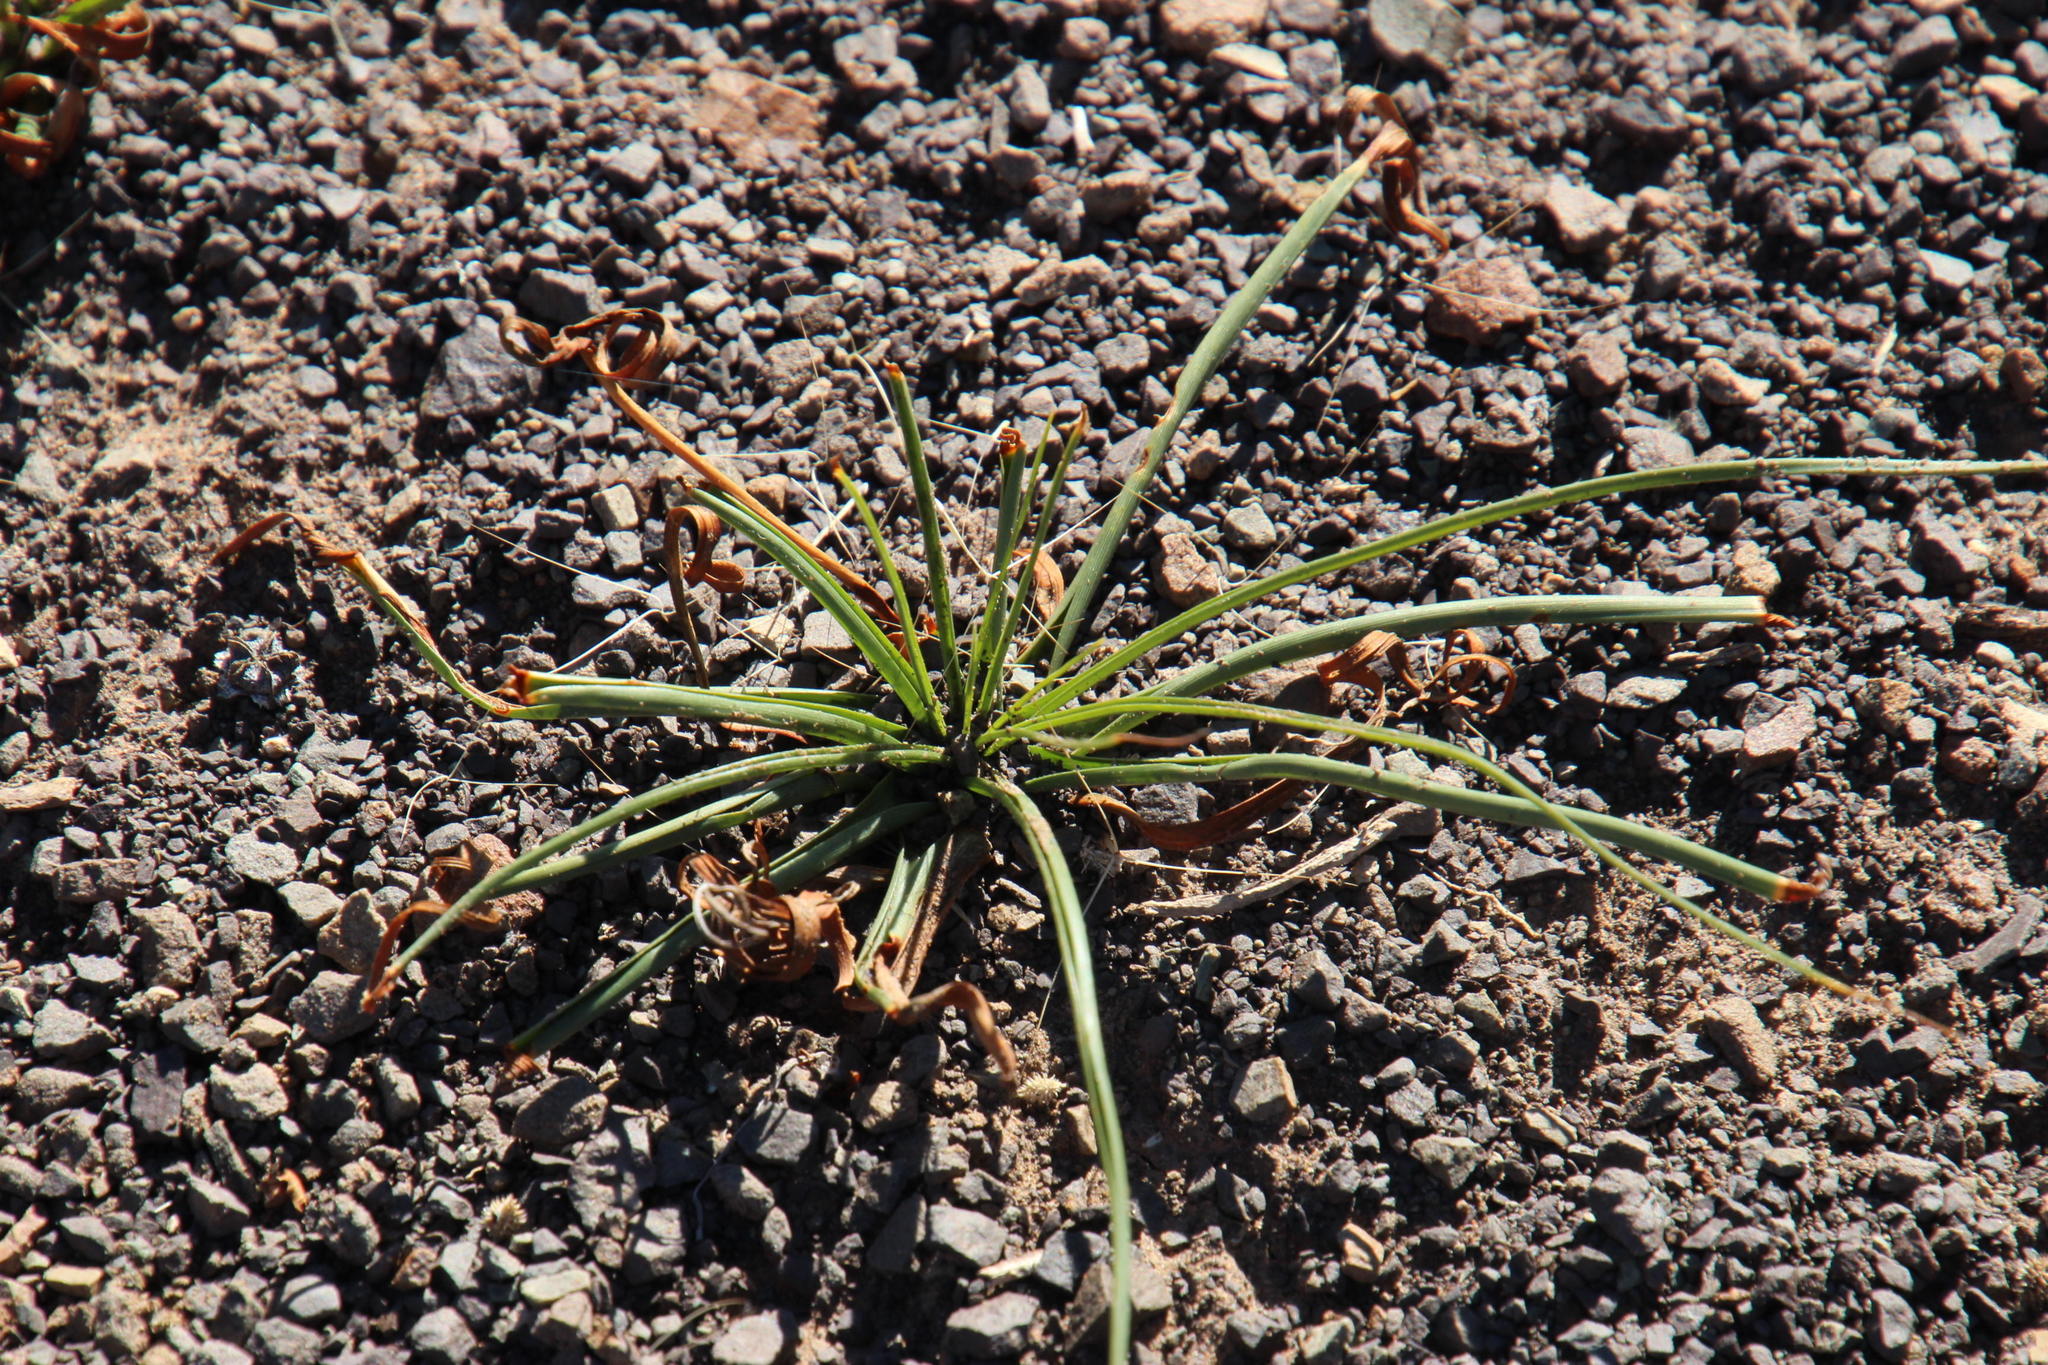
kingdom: Plantae
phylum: Tracheophyta
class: Liliopsida
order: Poales
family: Cyperaceae
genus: Cyperus
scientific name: Cyperus usitatus
